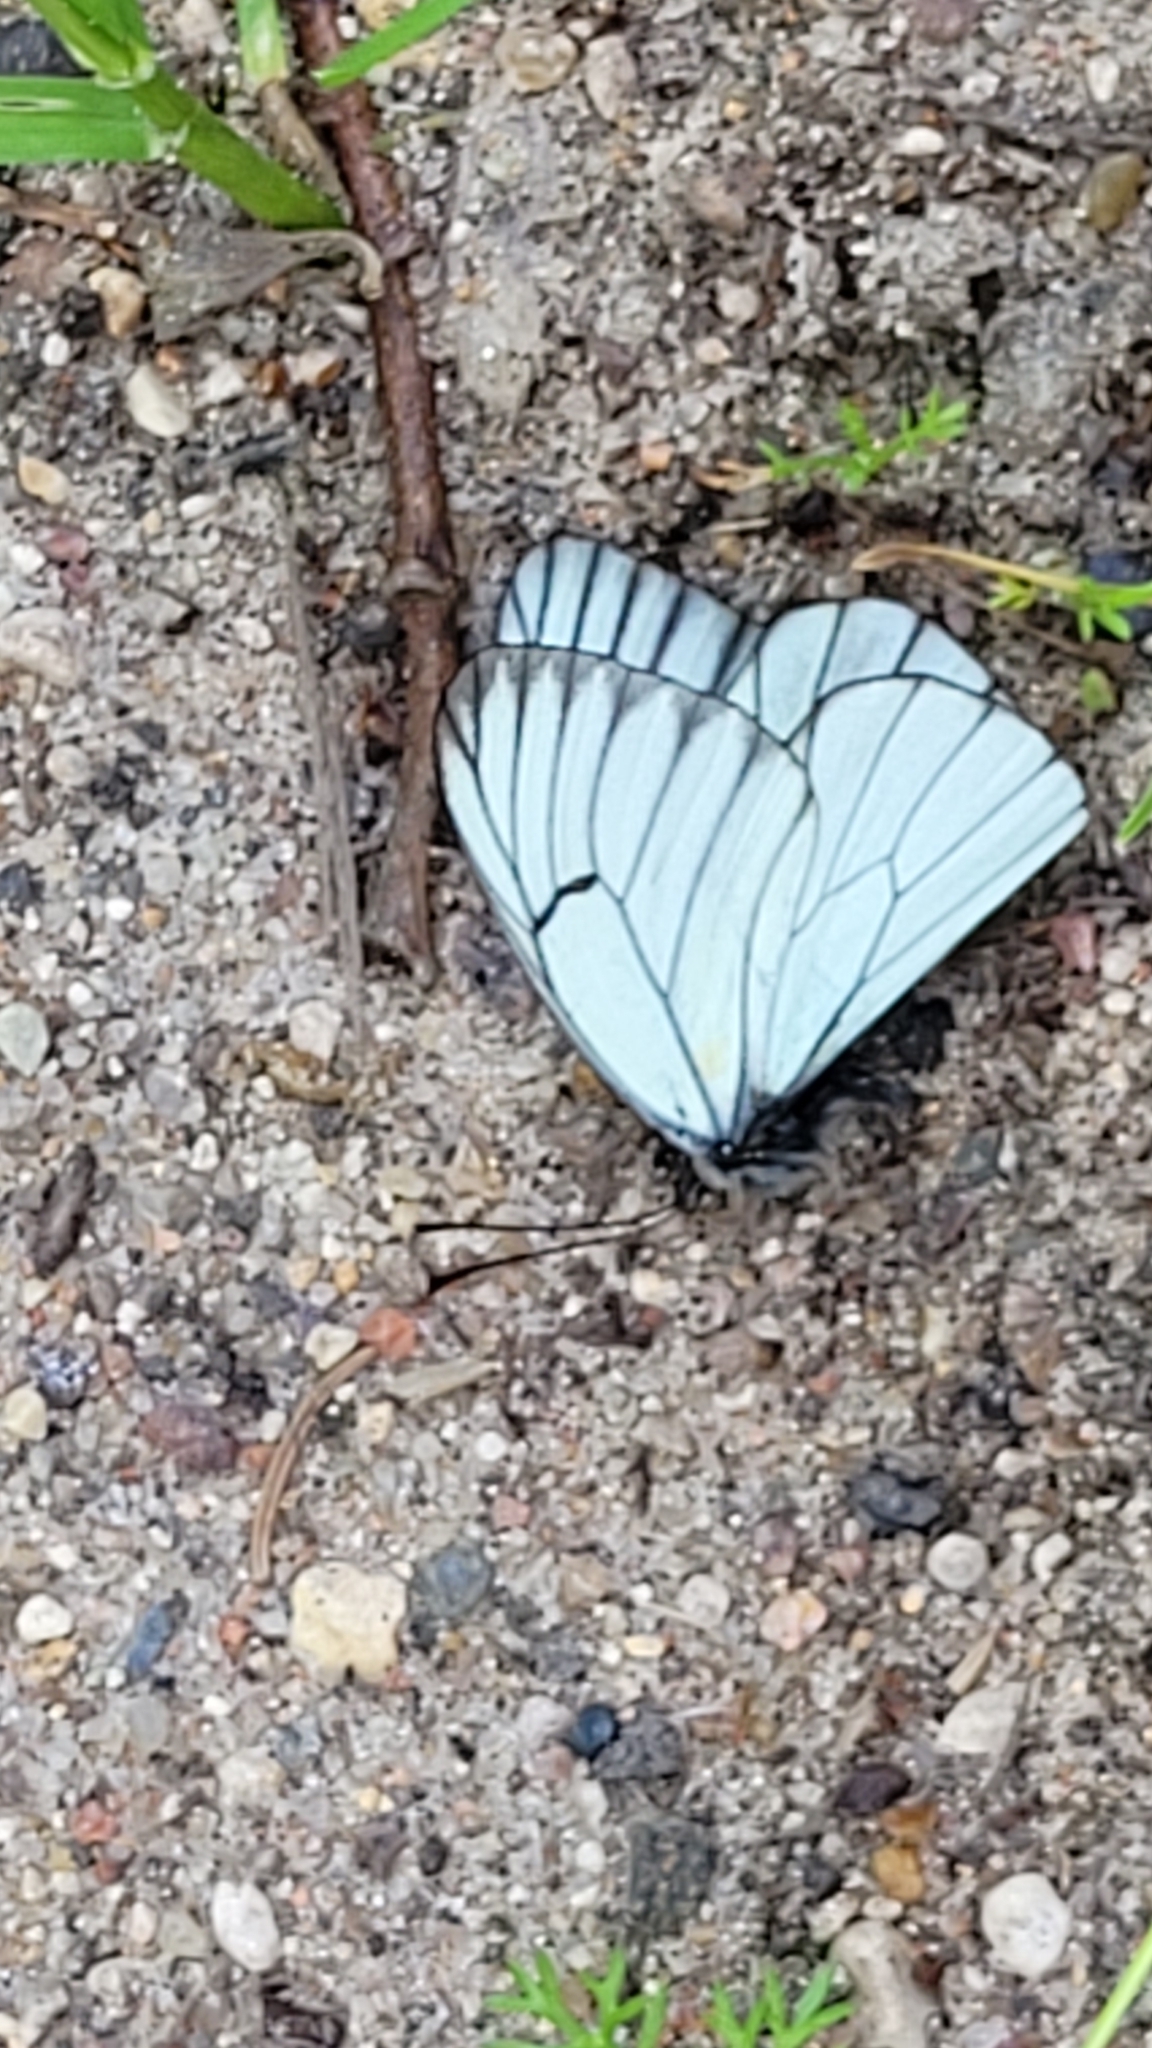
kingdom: Animalia
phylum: Arthropoda
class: Insecta
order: Lepidoptera
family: Pieridae
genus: Aporia
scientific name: Aporia crataegi
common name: Black-veined white
